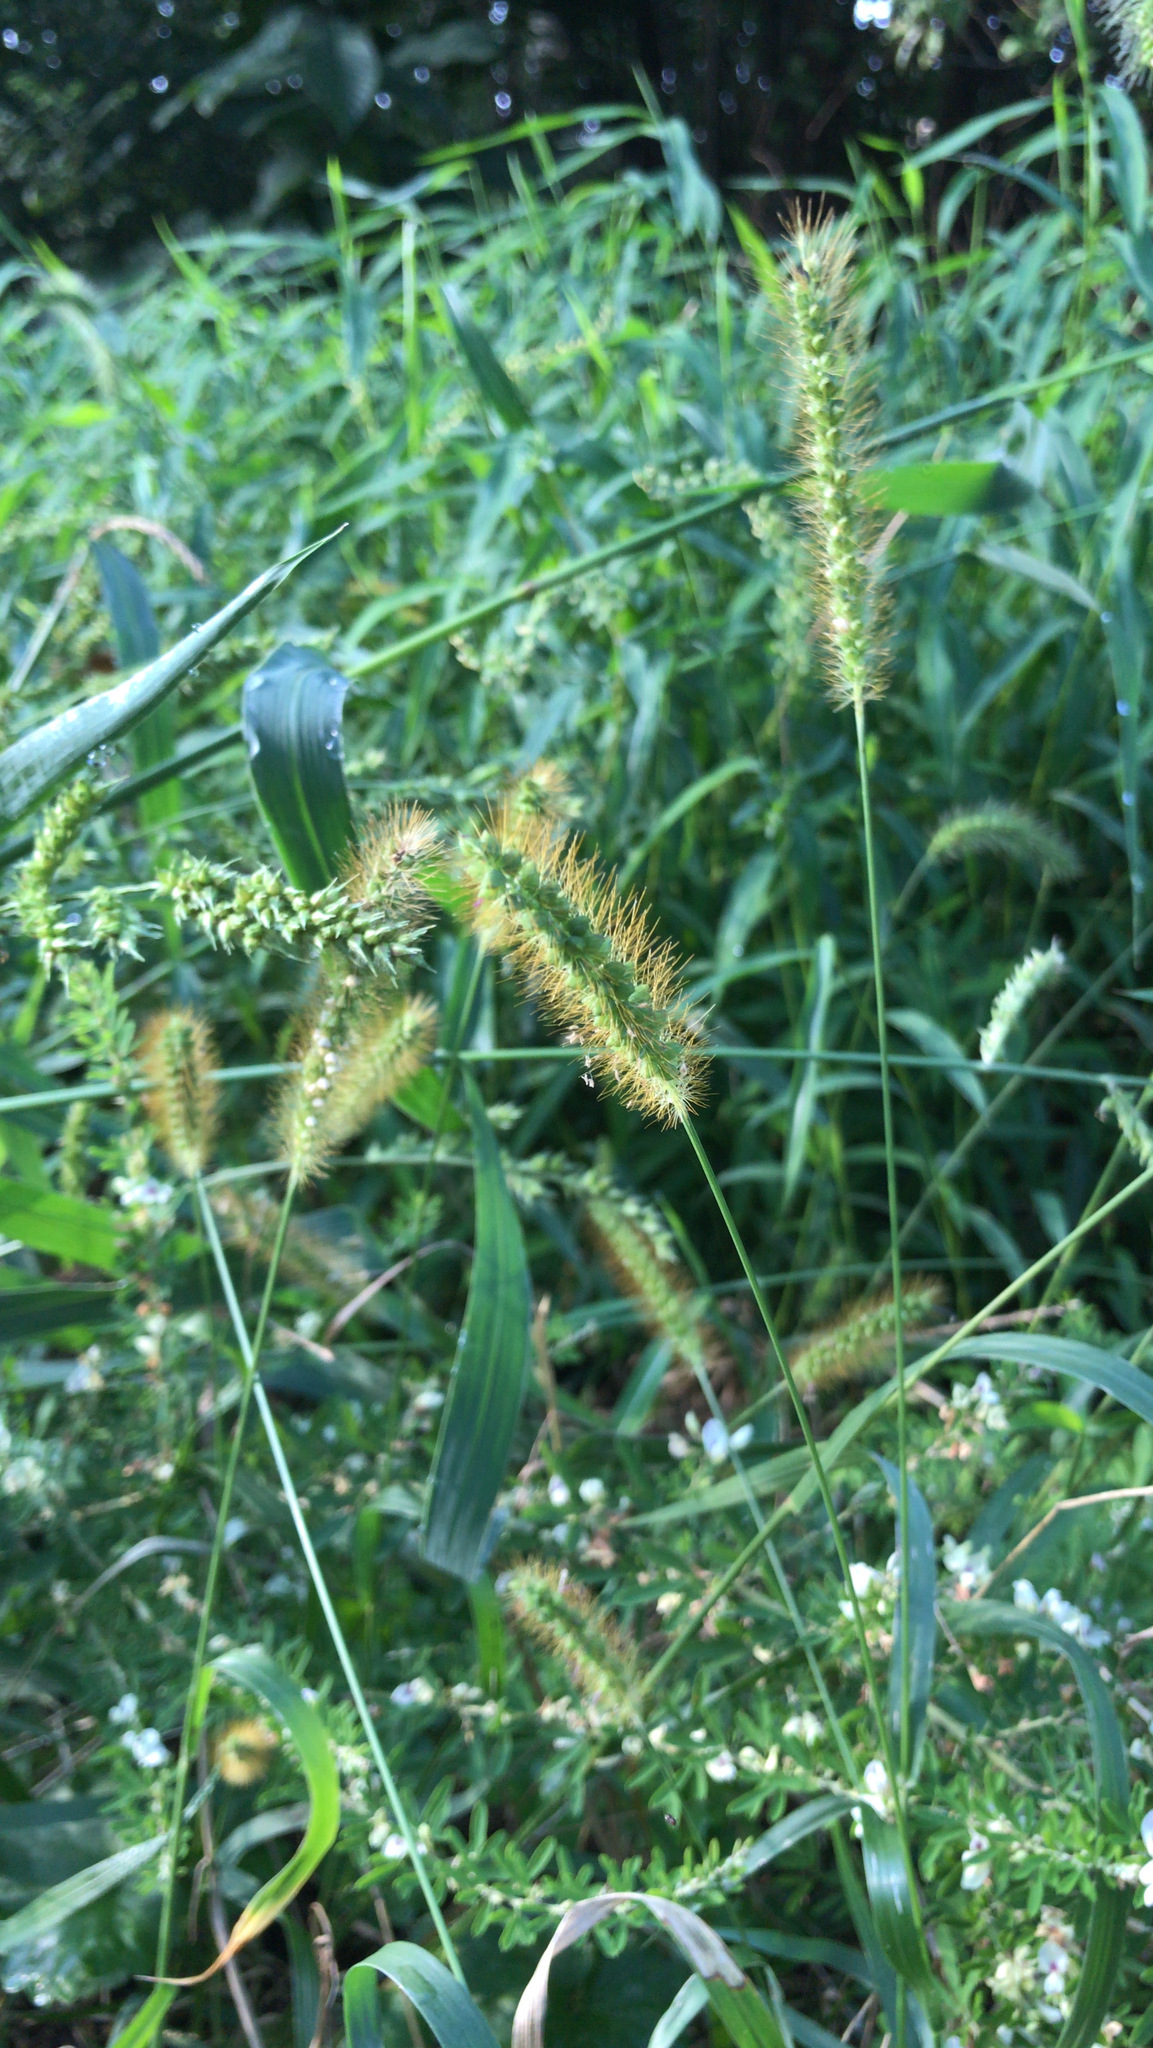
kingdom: Plantae
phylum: Tracheophyta
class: Liliopsida
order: Poales
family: Poaceae
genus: Setaria
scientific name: Setaria pumila
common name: Yellow bristle-grass
